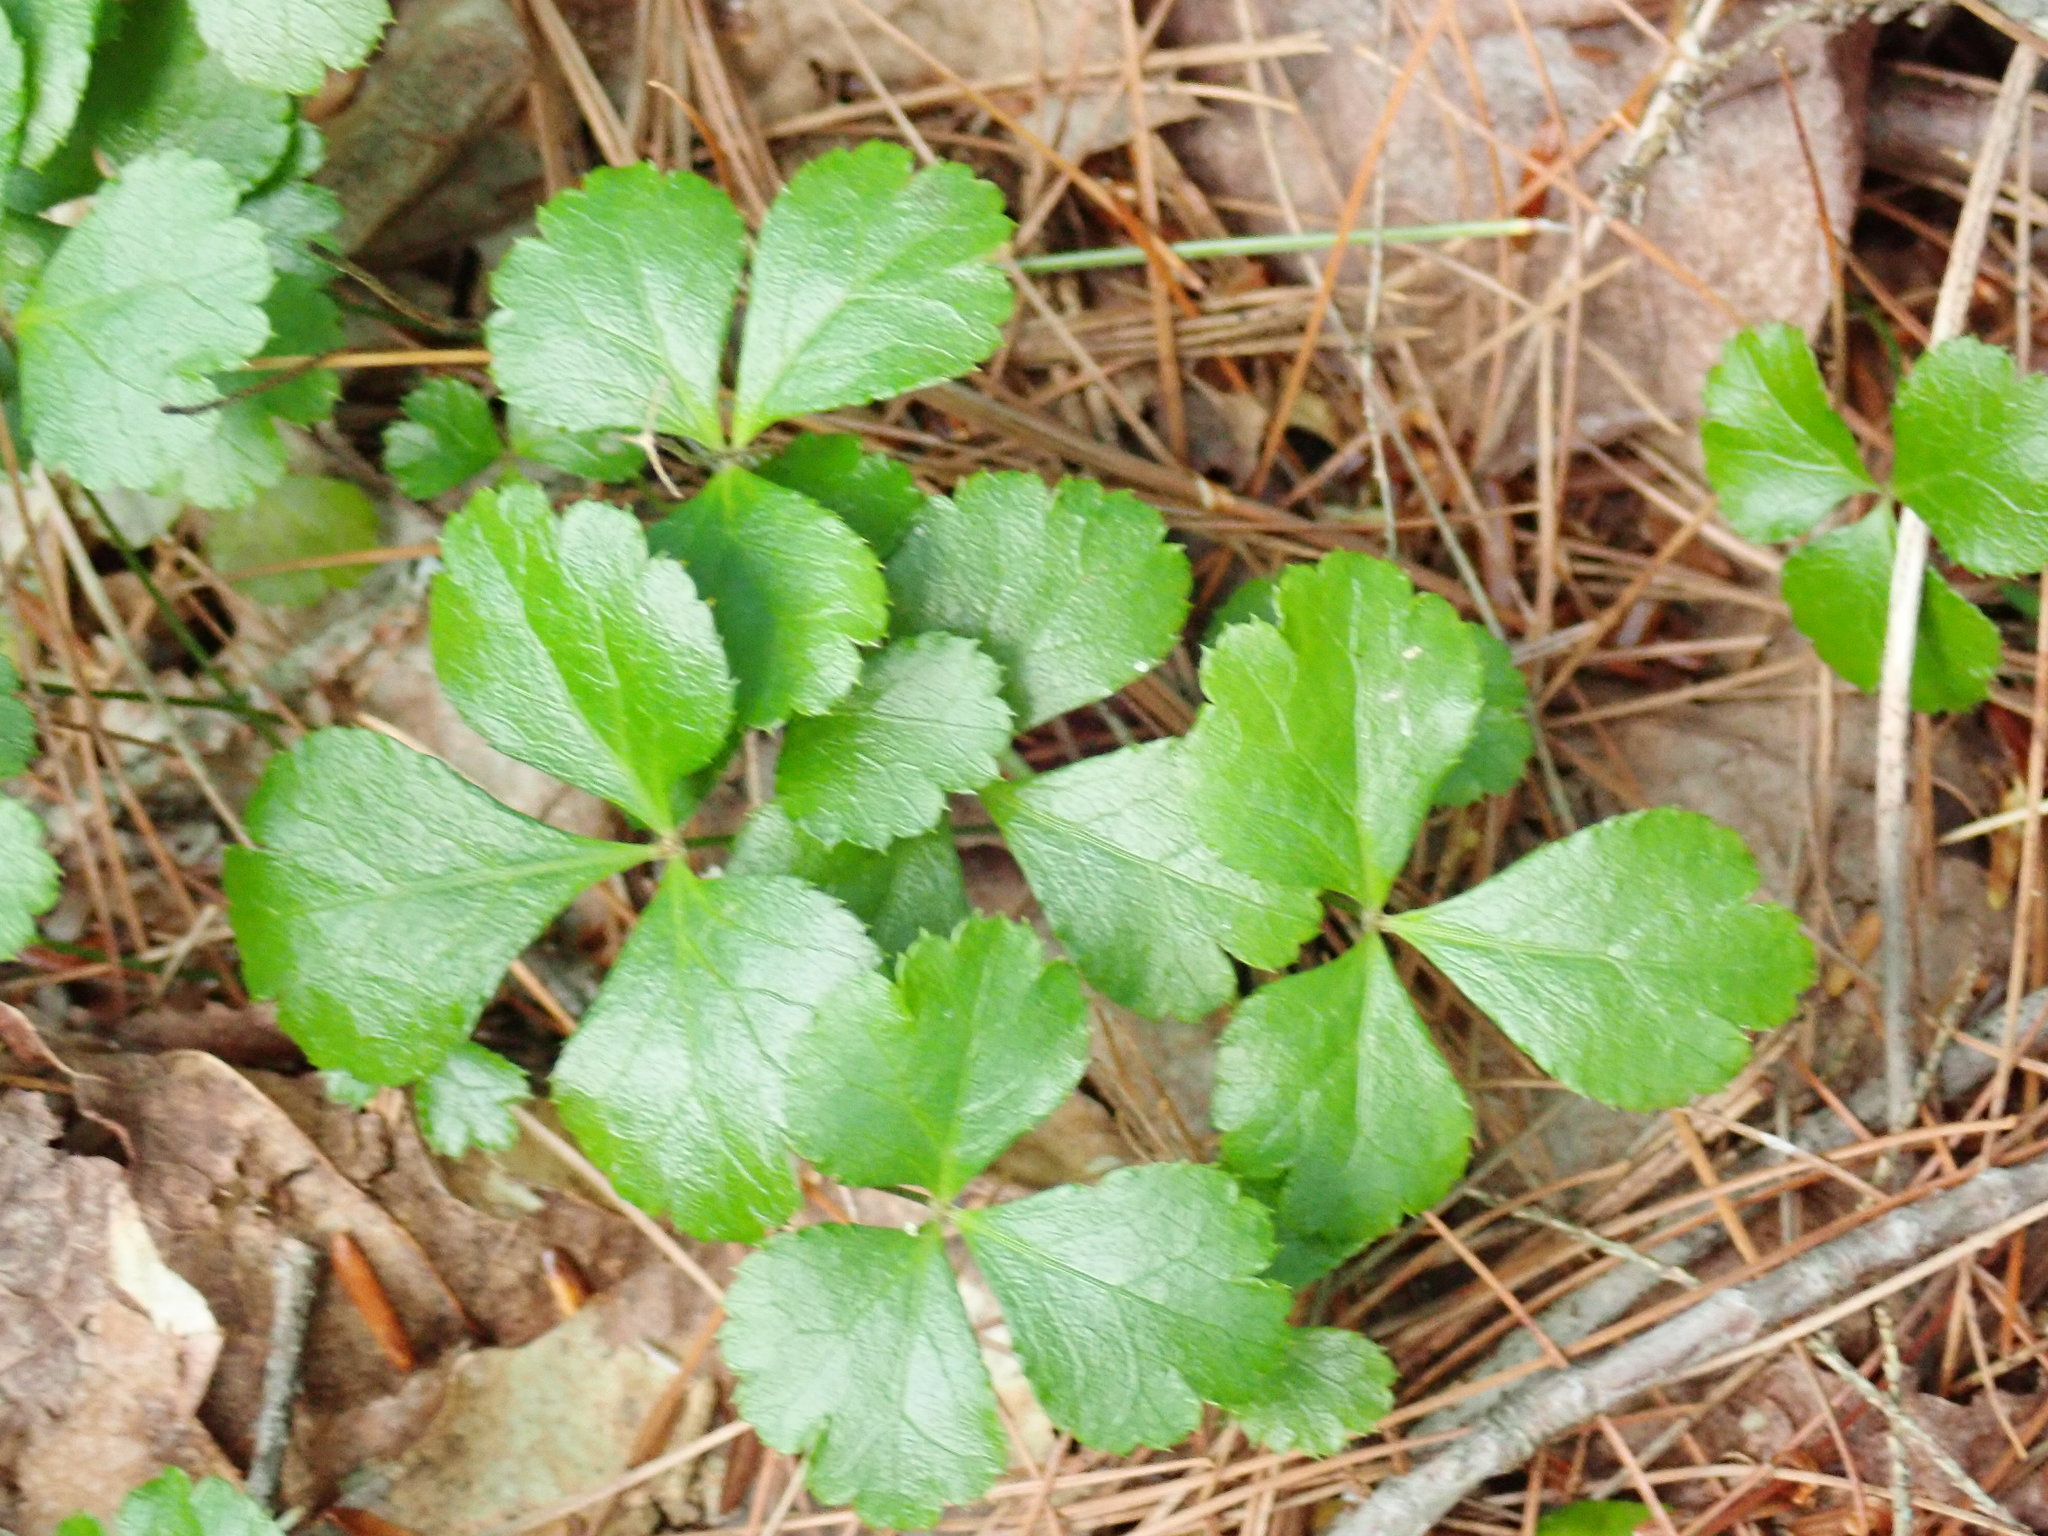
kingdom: Plantae
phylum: Tracheophyta
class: Magnoliopsida
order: Ranunculales
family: Ranunculaceae
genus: Coptis
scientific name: Coptis trifolia
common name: Canker-root
